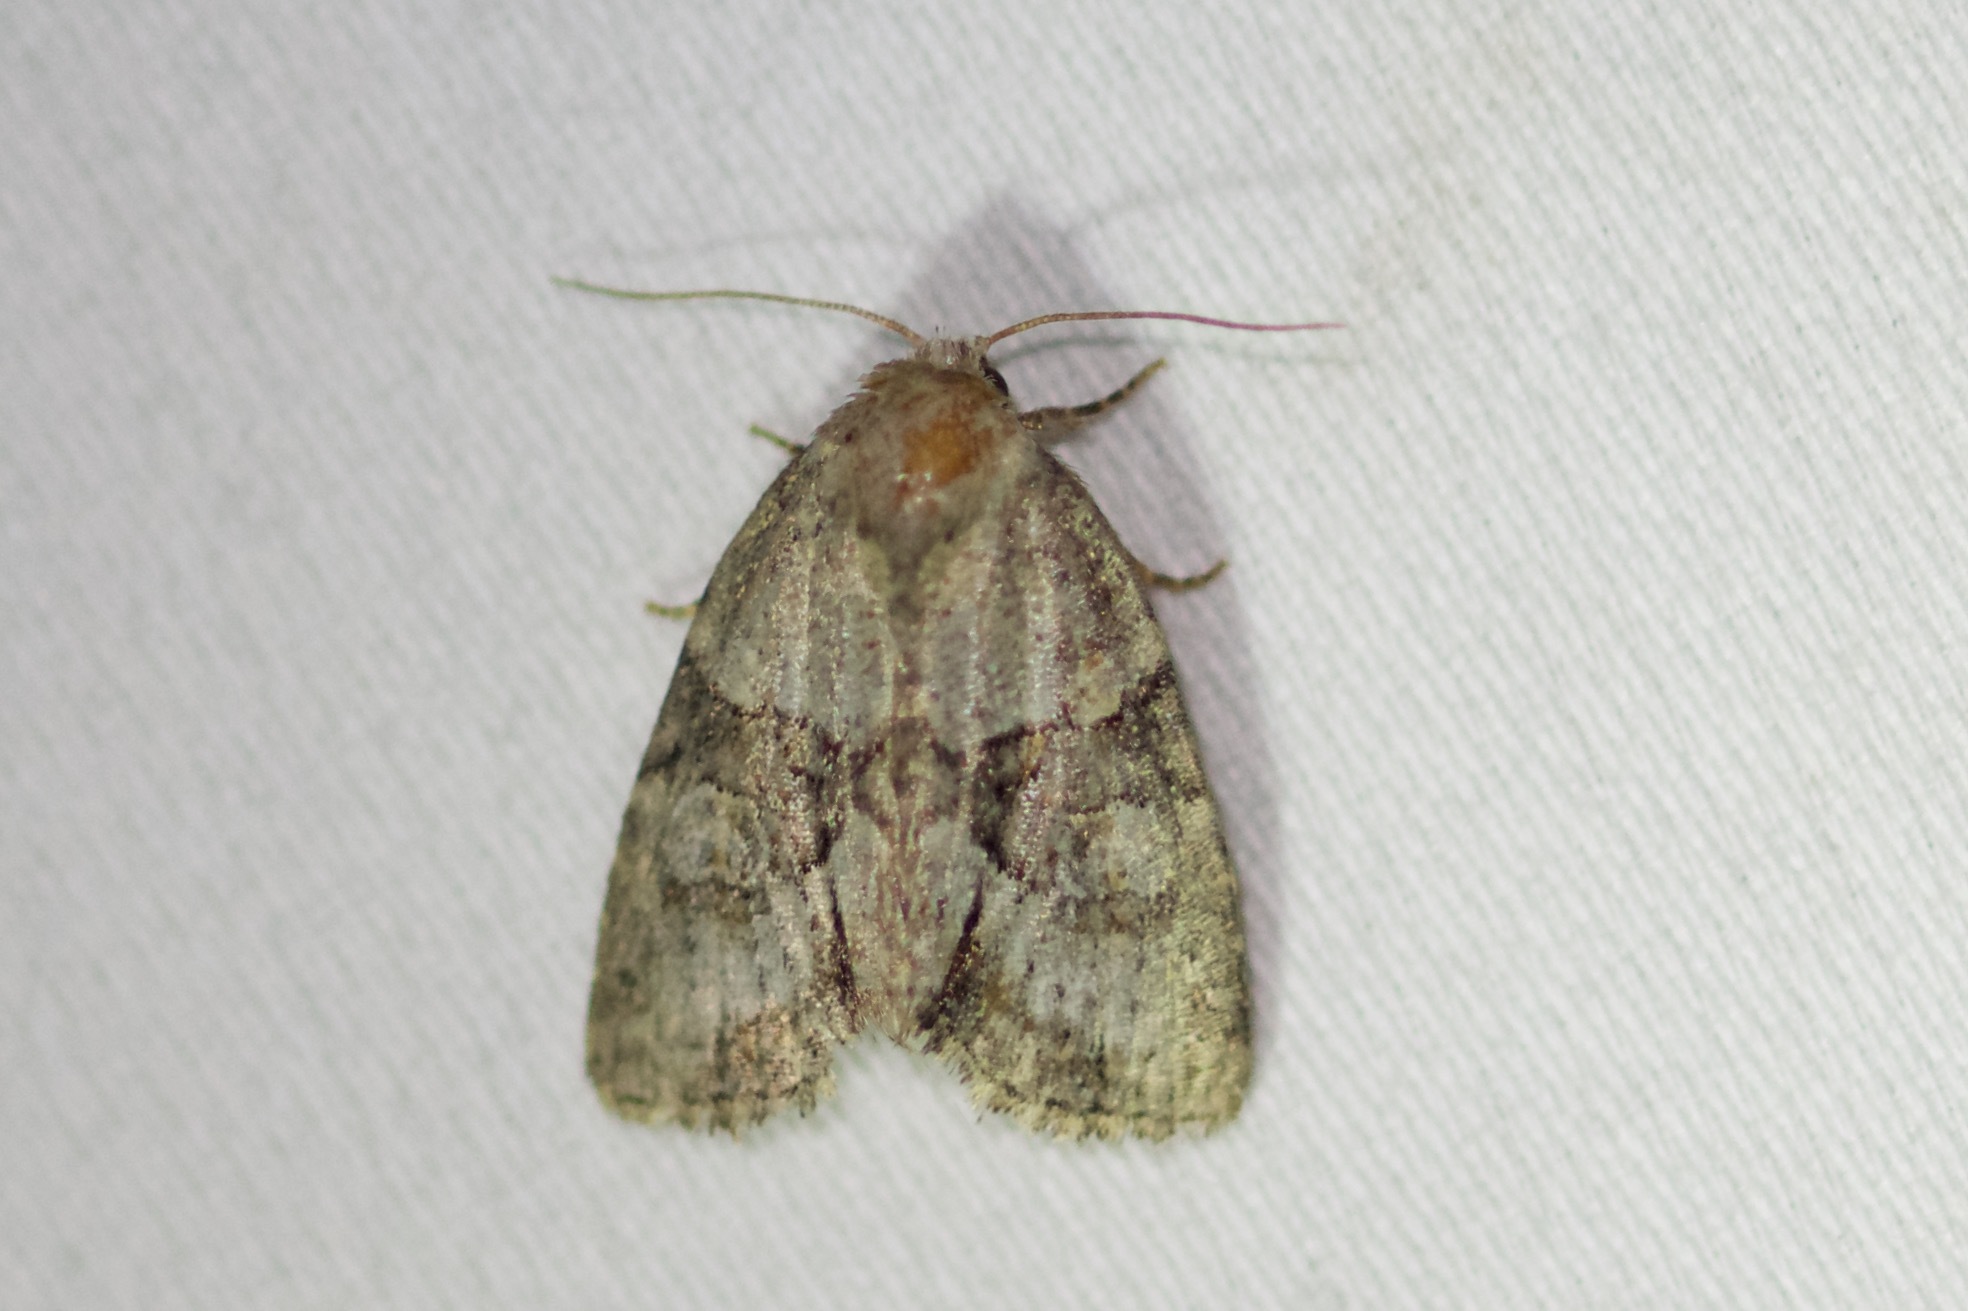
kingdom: Animalia
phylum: Arthropoda
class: Insecta
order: Lepidoptera
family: Noctuidae
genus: Neoligia
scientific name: Neoligia exhausta
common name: Exhausted brocade
